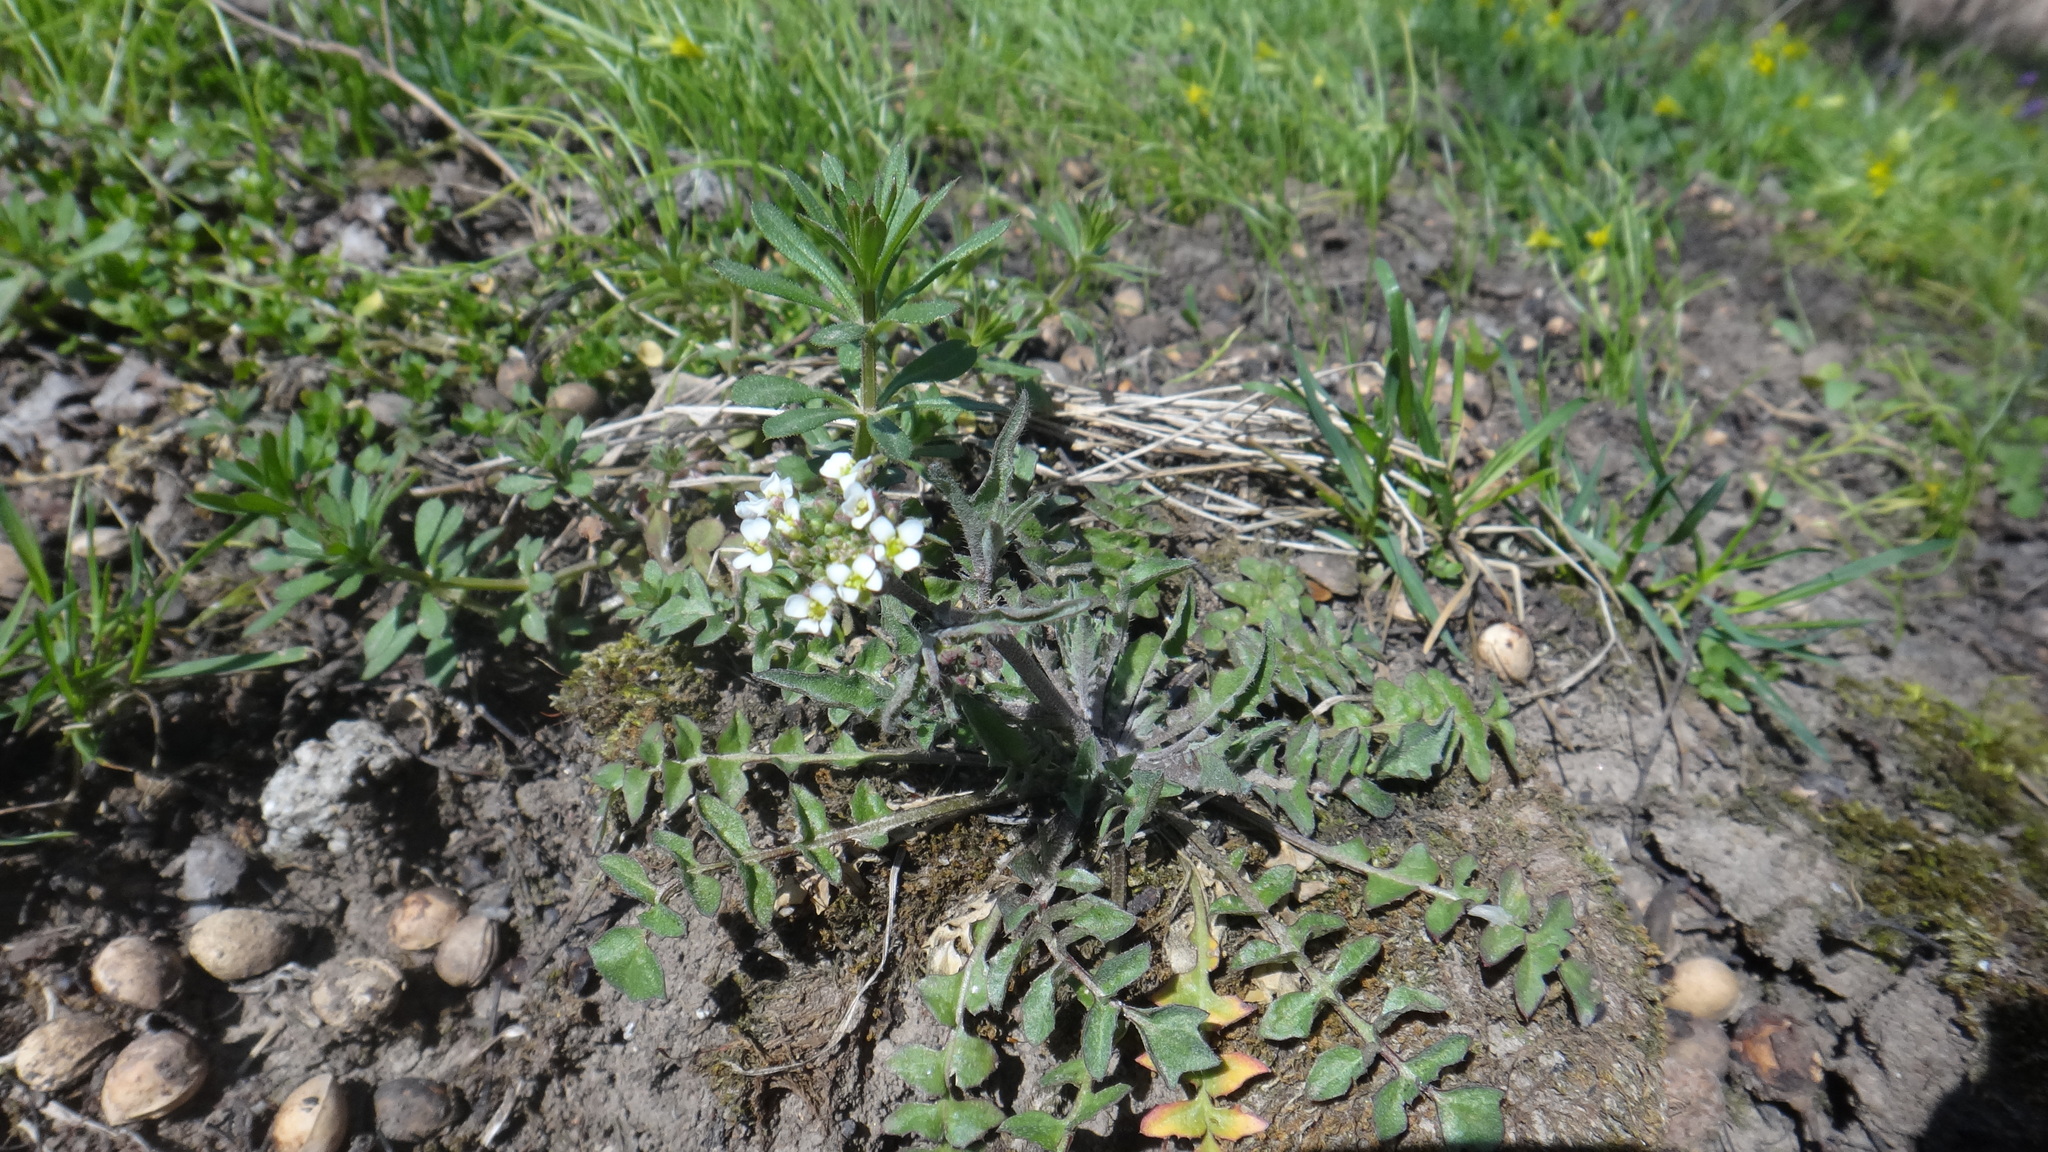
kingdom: Plantae
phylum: Tracheophyta
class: Magnoliopsida
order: Brassicales
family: Brassicaceae
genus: Capsella
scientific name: Capsella bursa-pastoris
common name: Shepherd's purse
